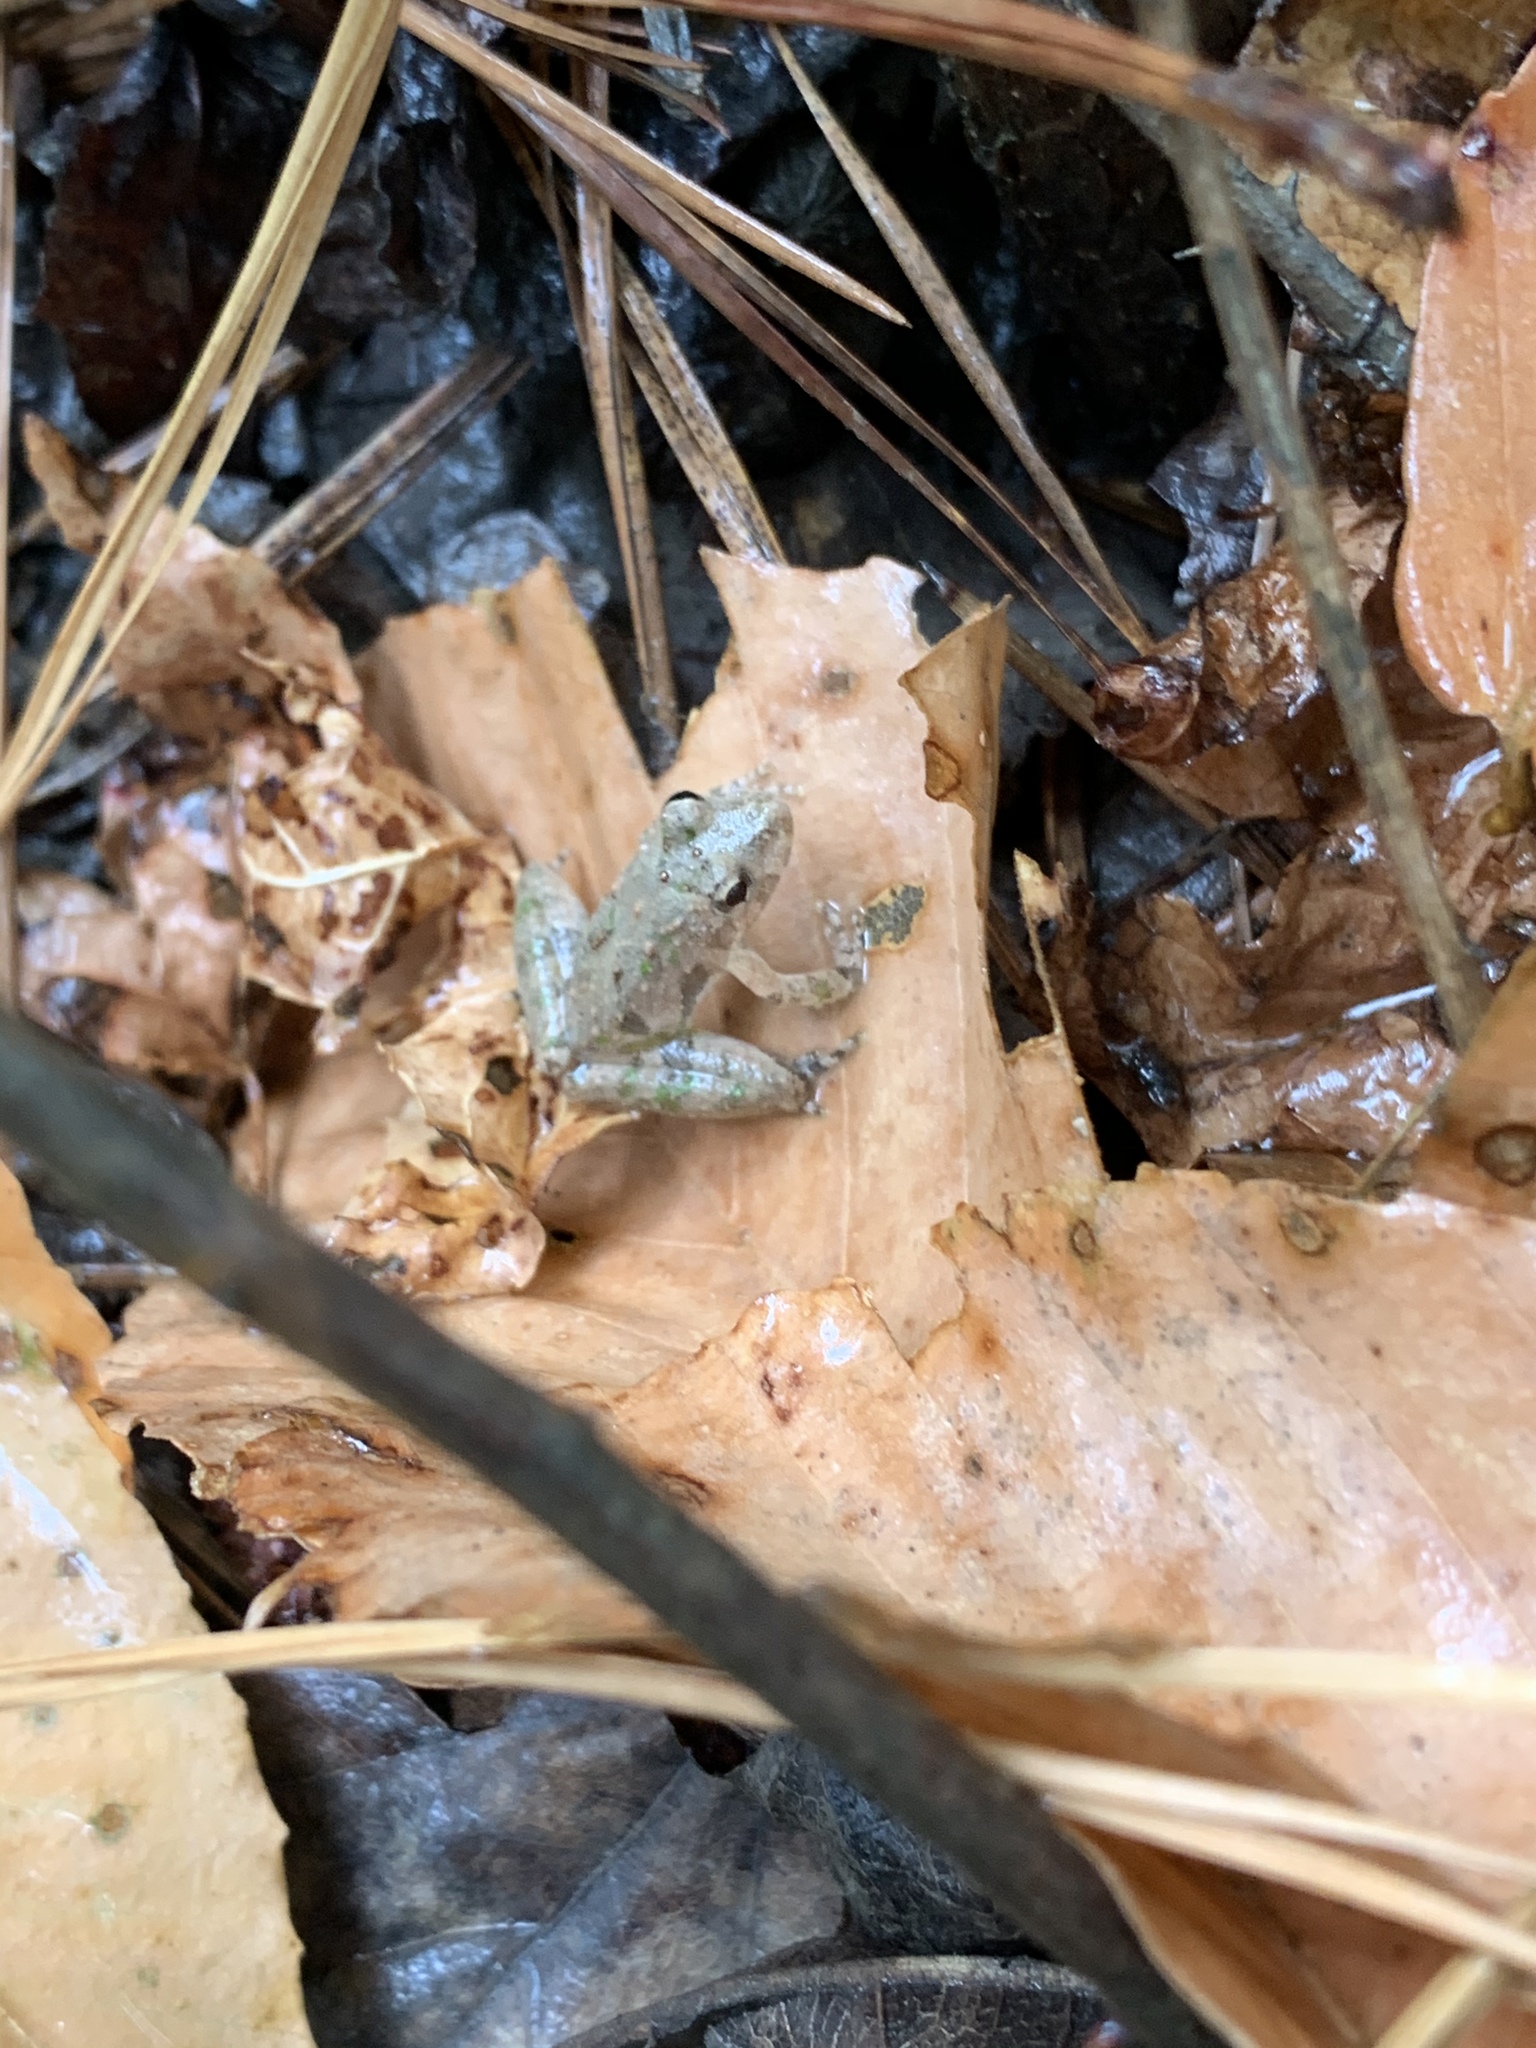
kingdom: Animalia
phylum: Chordata
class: Amphibia
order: Anura
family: Hylidae
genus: Acris
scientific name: Acris crepitans
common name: Northern cricket frog
